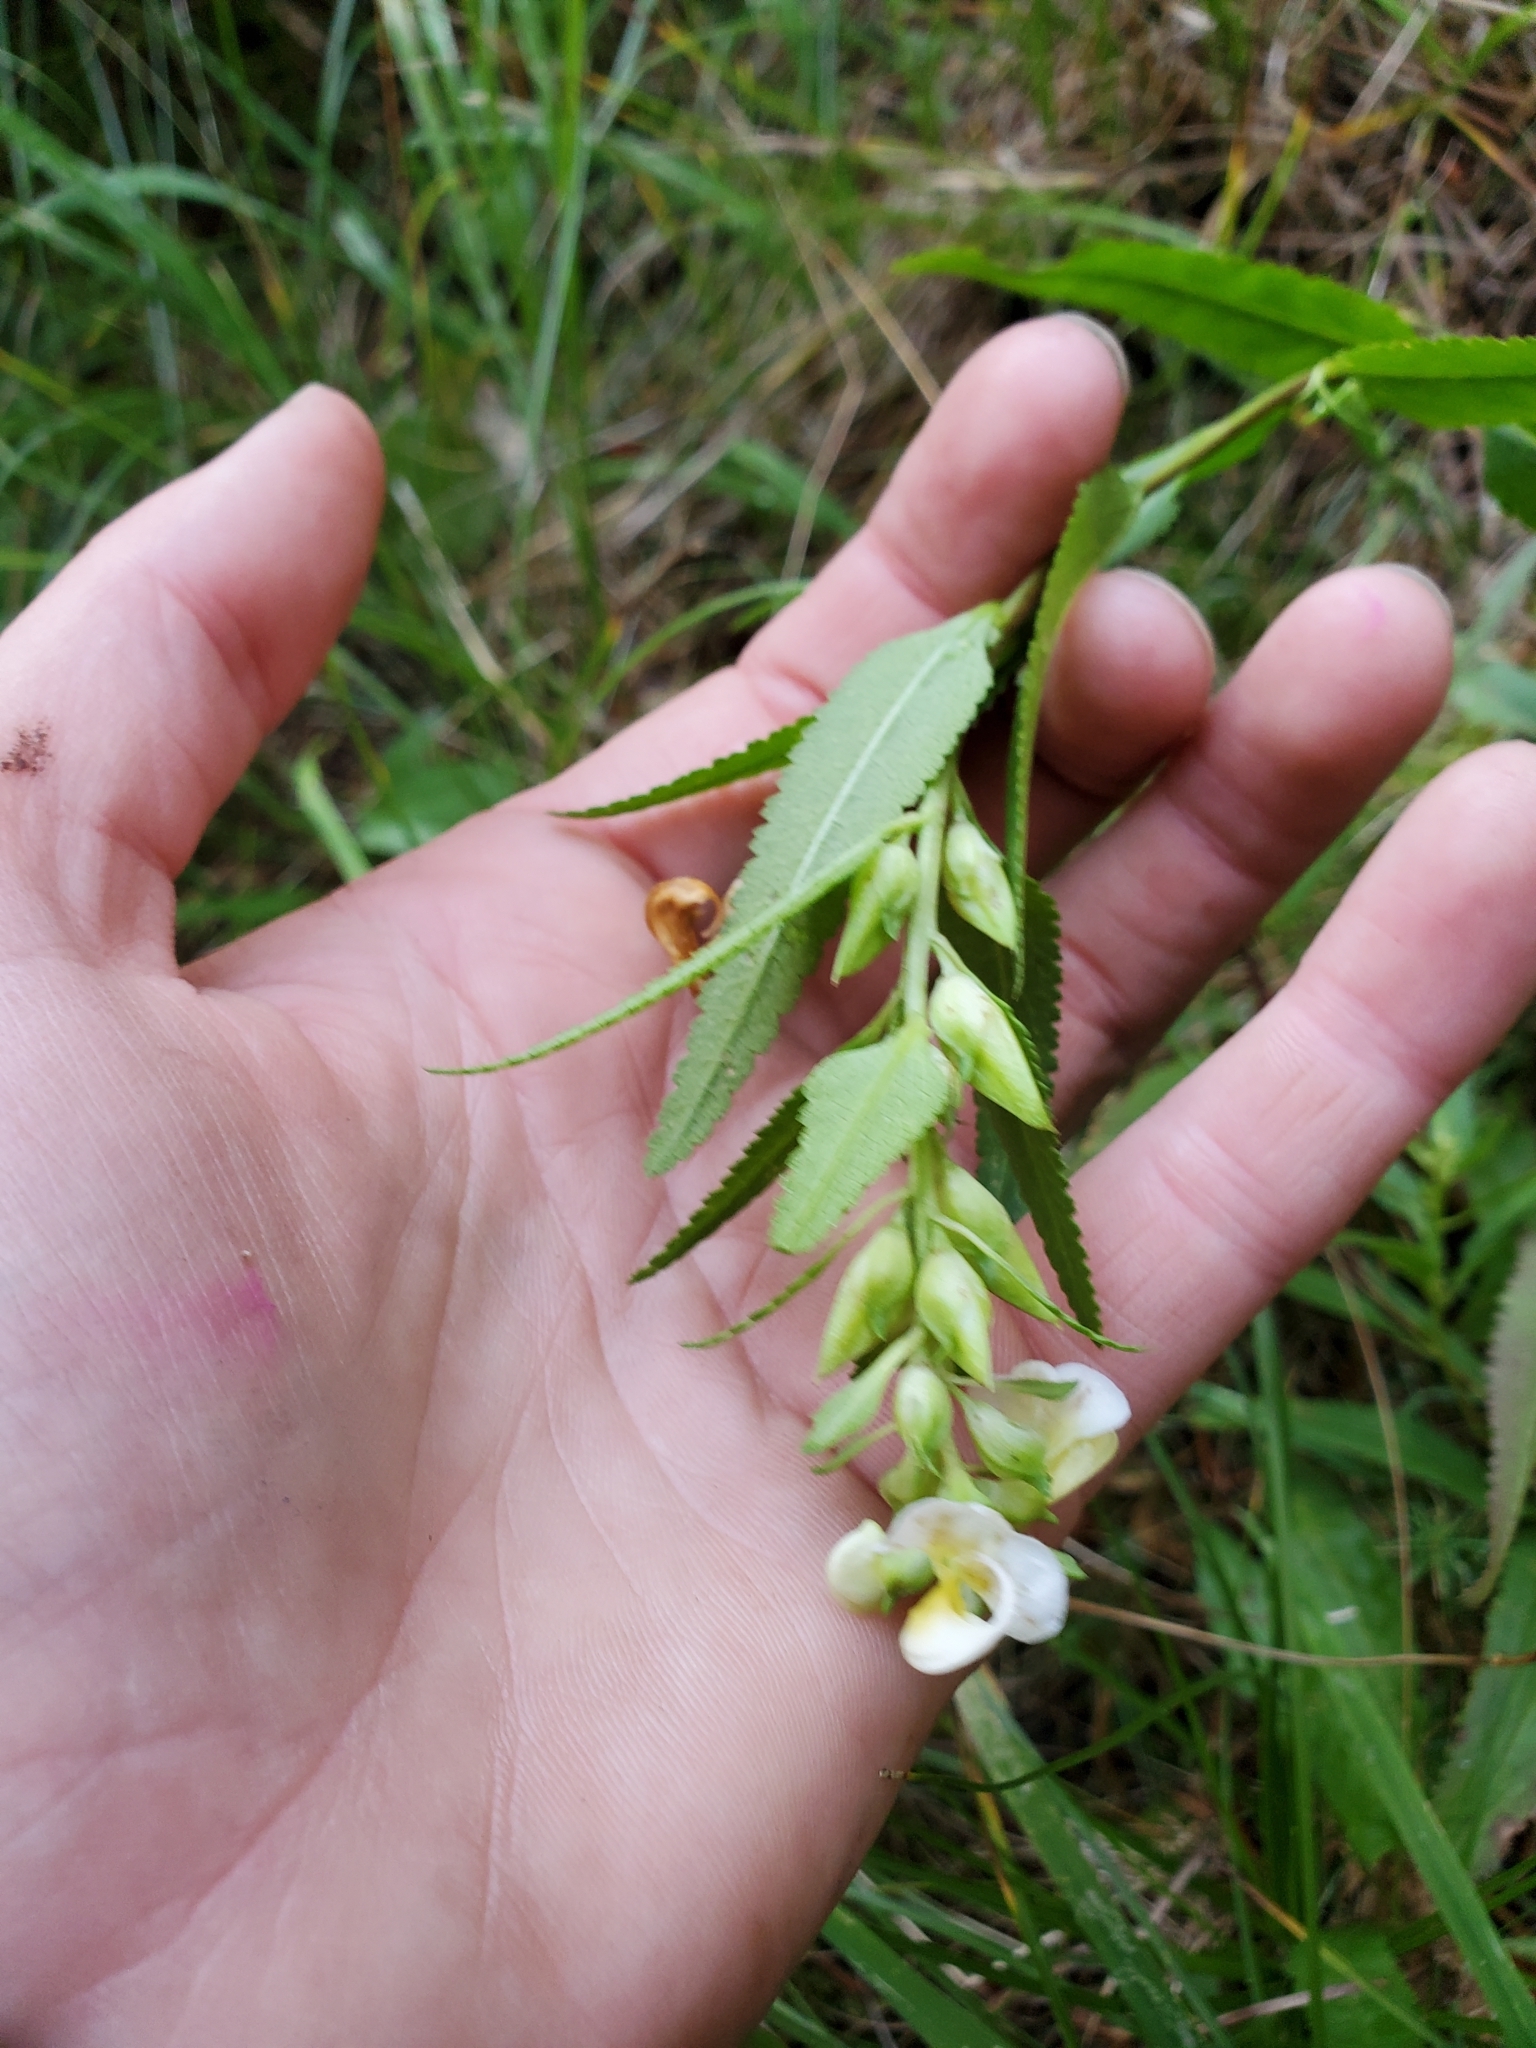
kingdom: Plantae
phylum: Tracheophyta
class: Magnoliopsida
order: Lamiales
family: Orobanchaceae
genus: Pedicularis
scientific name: Pedicularis racemosa
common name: Leafy lousewort
